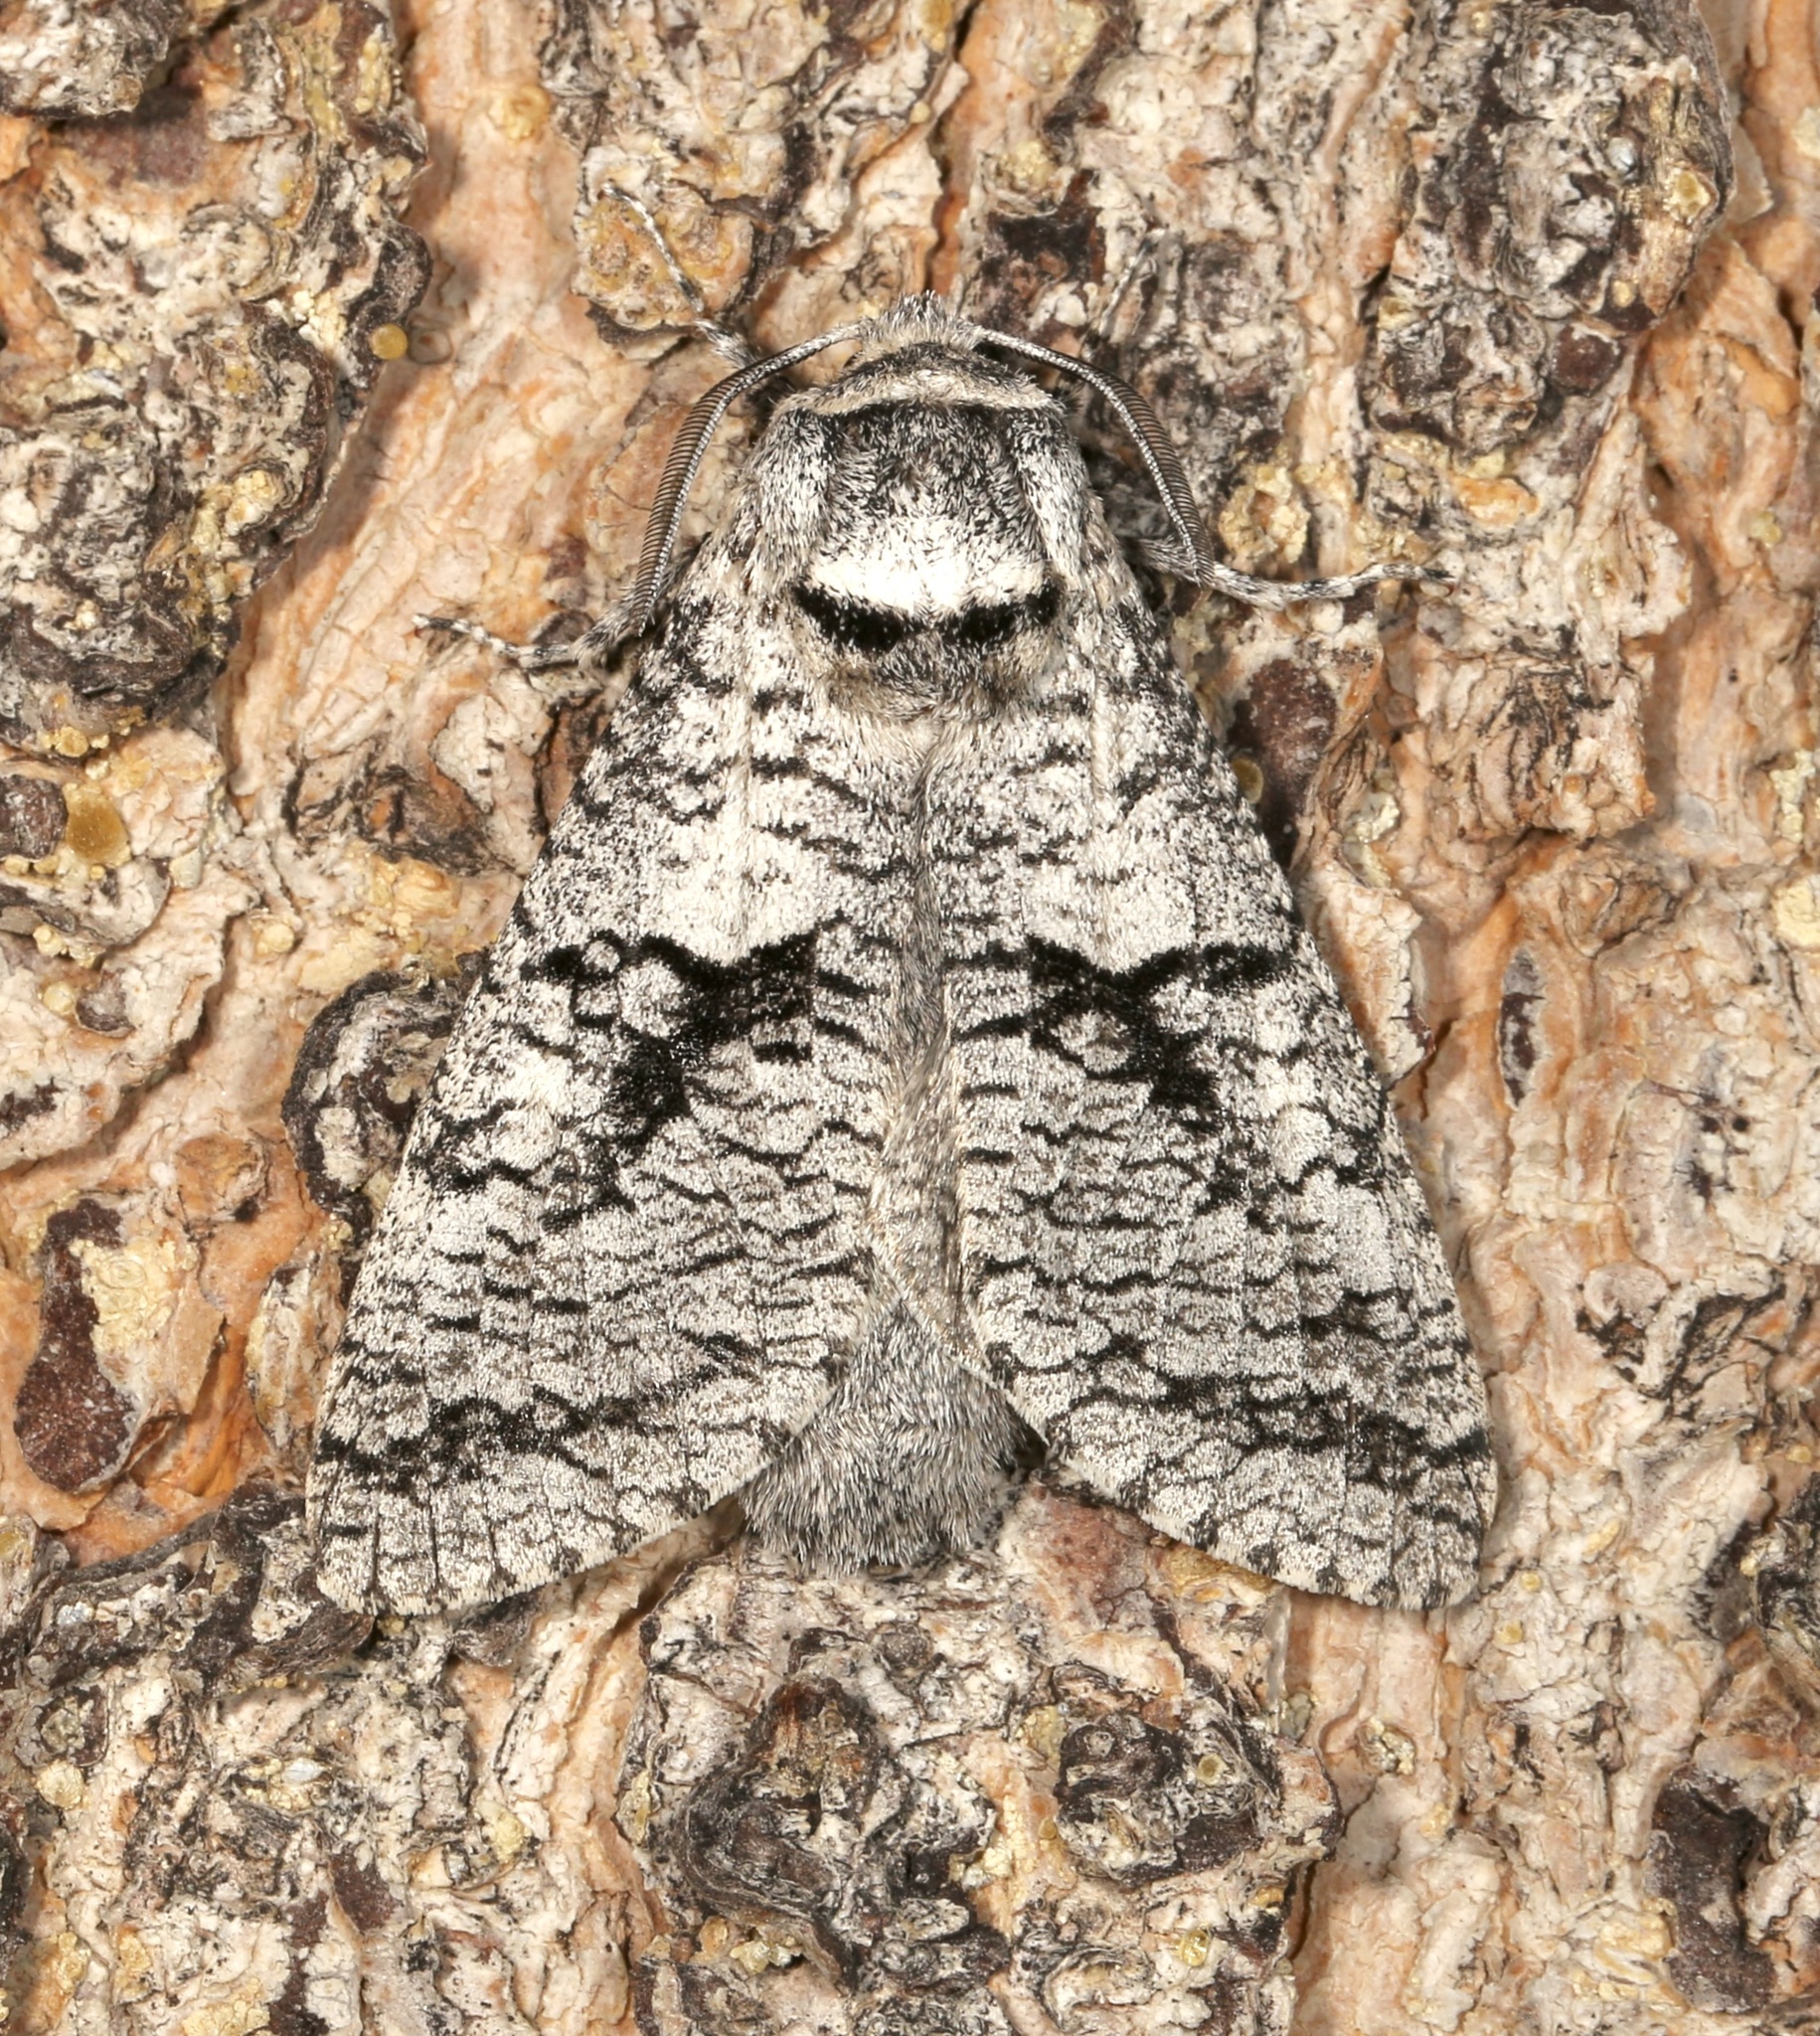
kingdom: Animalia
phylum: Arthropoda
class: Insecta
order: Lepidoptera
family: Cossidae
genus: Acossus
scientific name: Acossus populi
